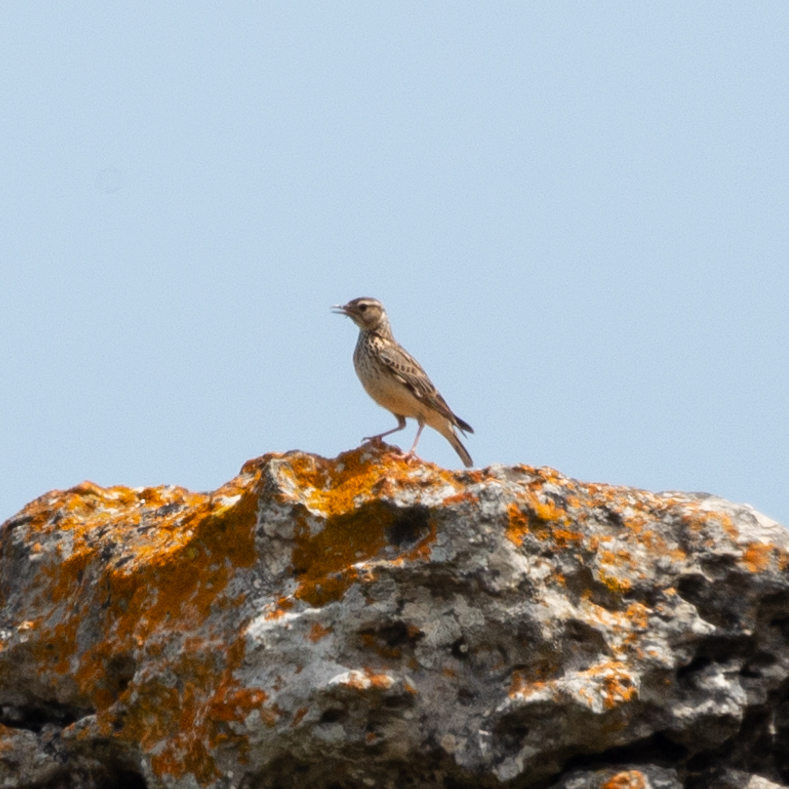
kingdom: Animalia
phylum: Chordata
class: Aves
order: Passeriformes
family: Alaudidae
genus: Lullula
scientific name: Lullula arborea
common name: Woodlark
